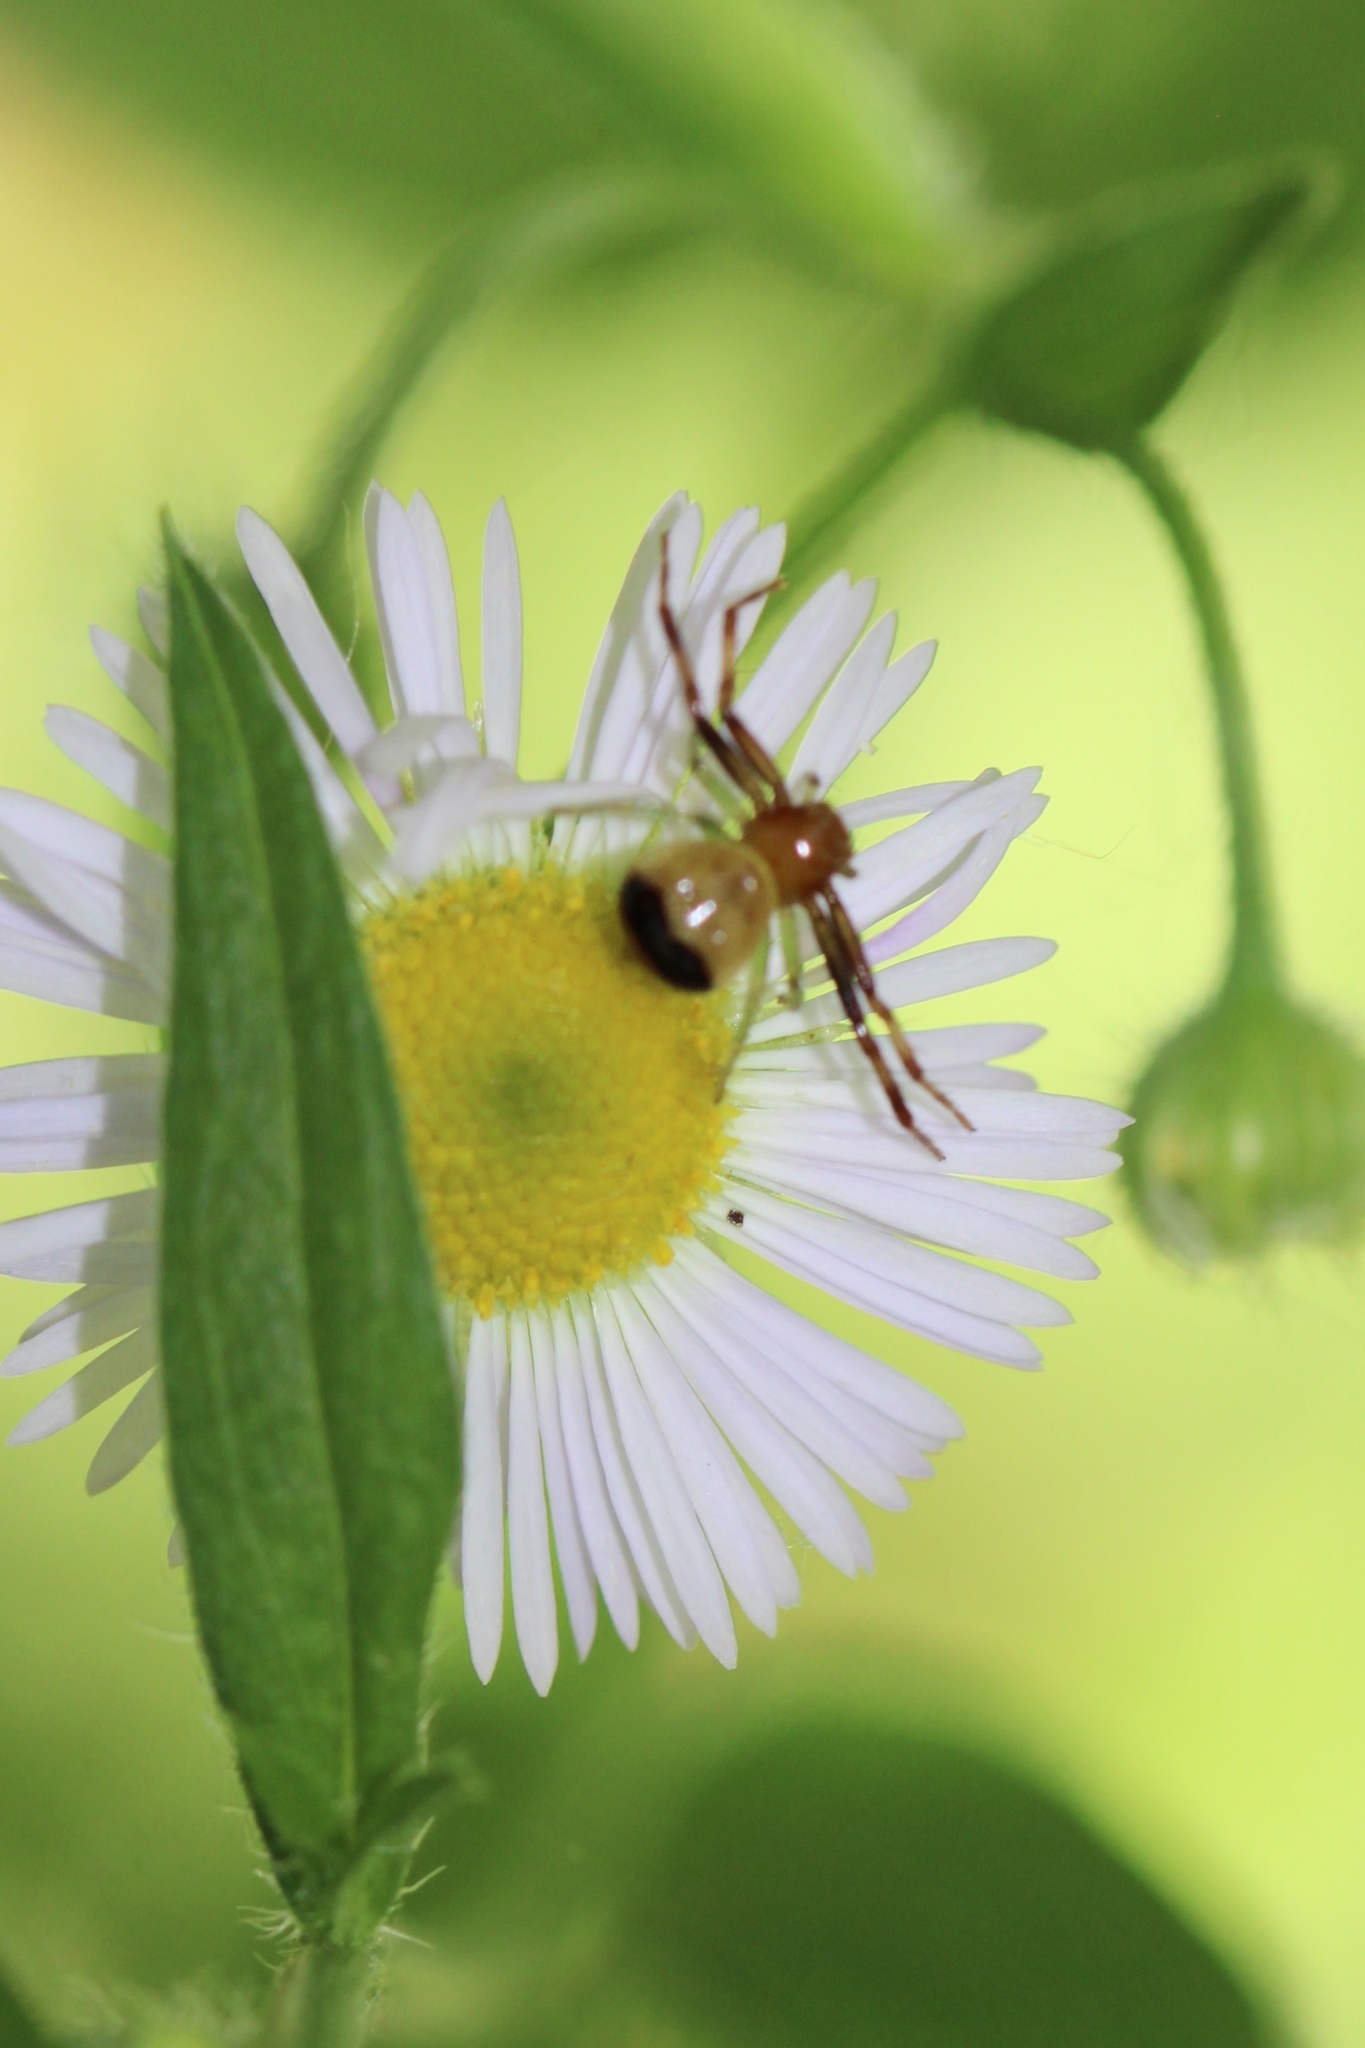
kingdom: Animalia
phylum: Arthropoda
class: Arachnida
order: Araneae
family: Thomisidae
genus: Synema
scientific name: Synema parvulum
